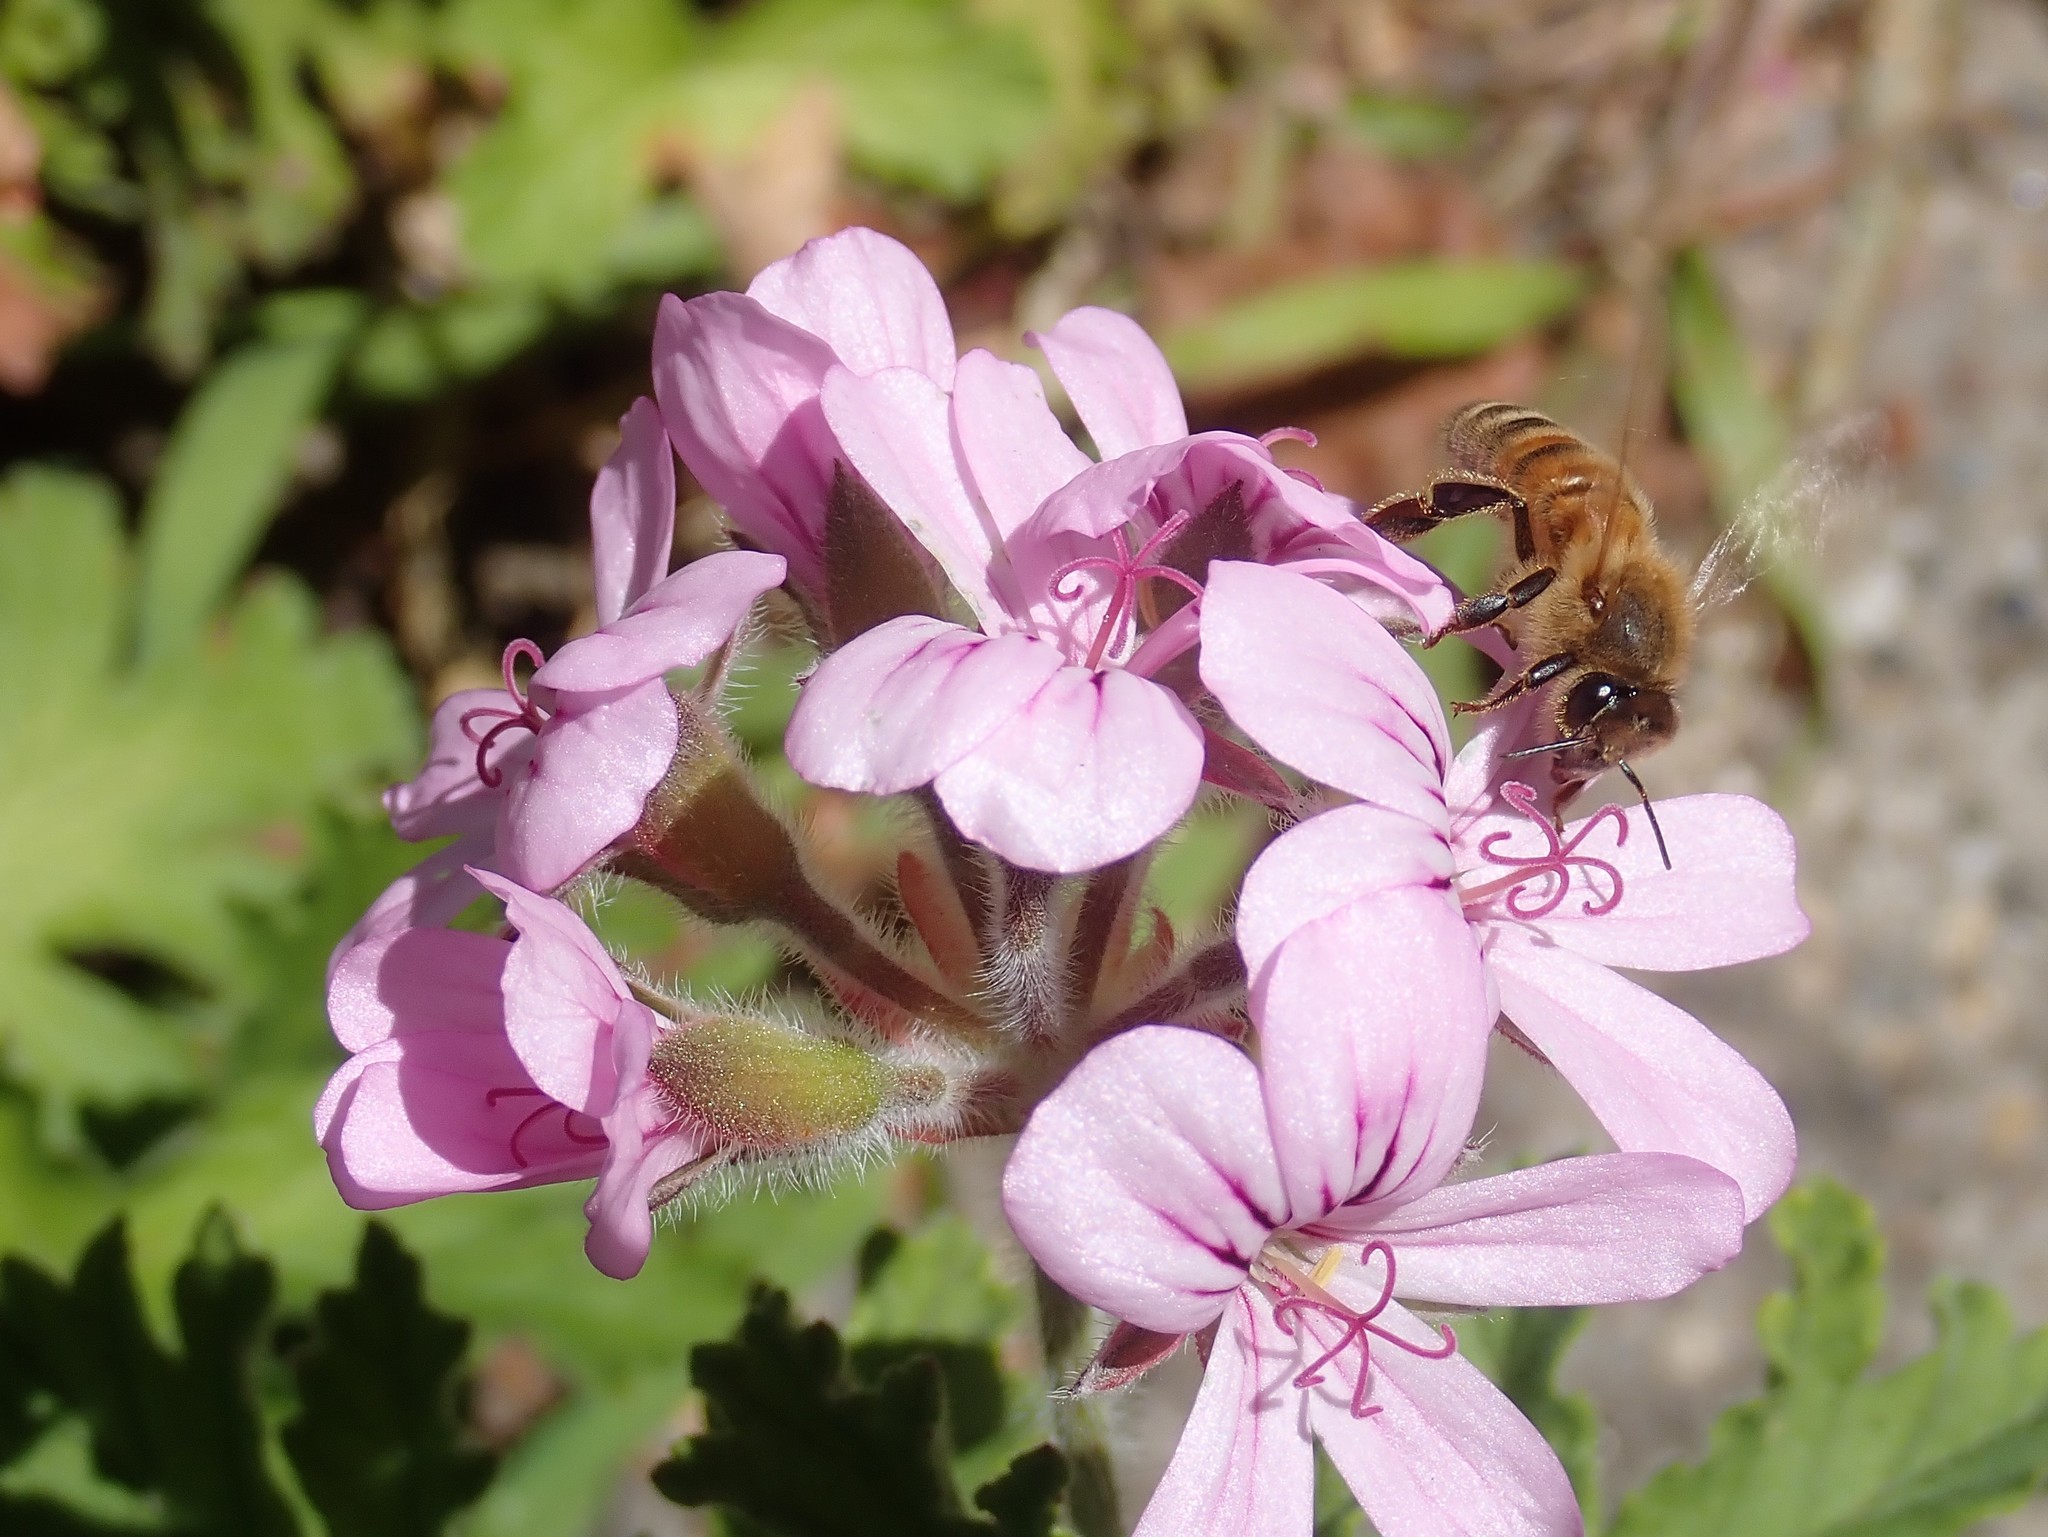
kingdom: Animalia
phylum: Arthropoda
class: Insecta
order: Hymenoptera
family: Apidae
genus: Apis
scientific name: Apis mellifera
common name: Honey bee
